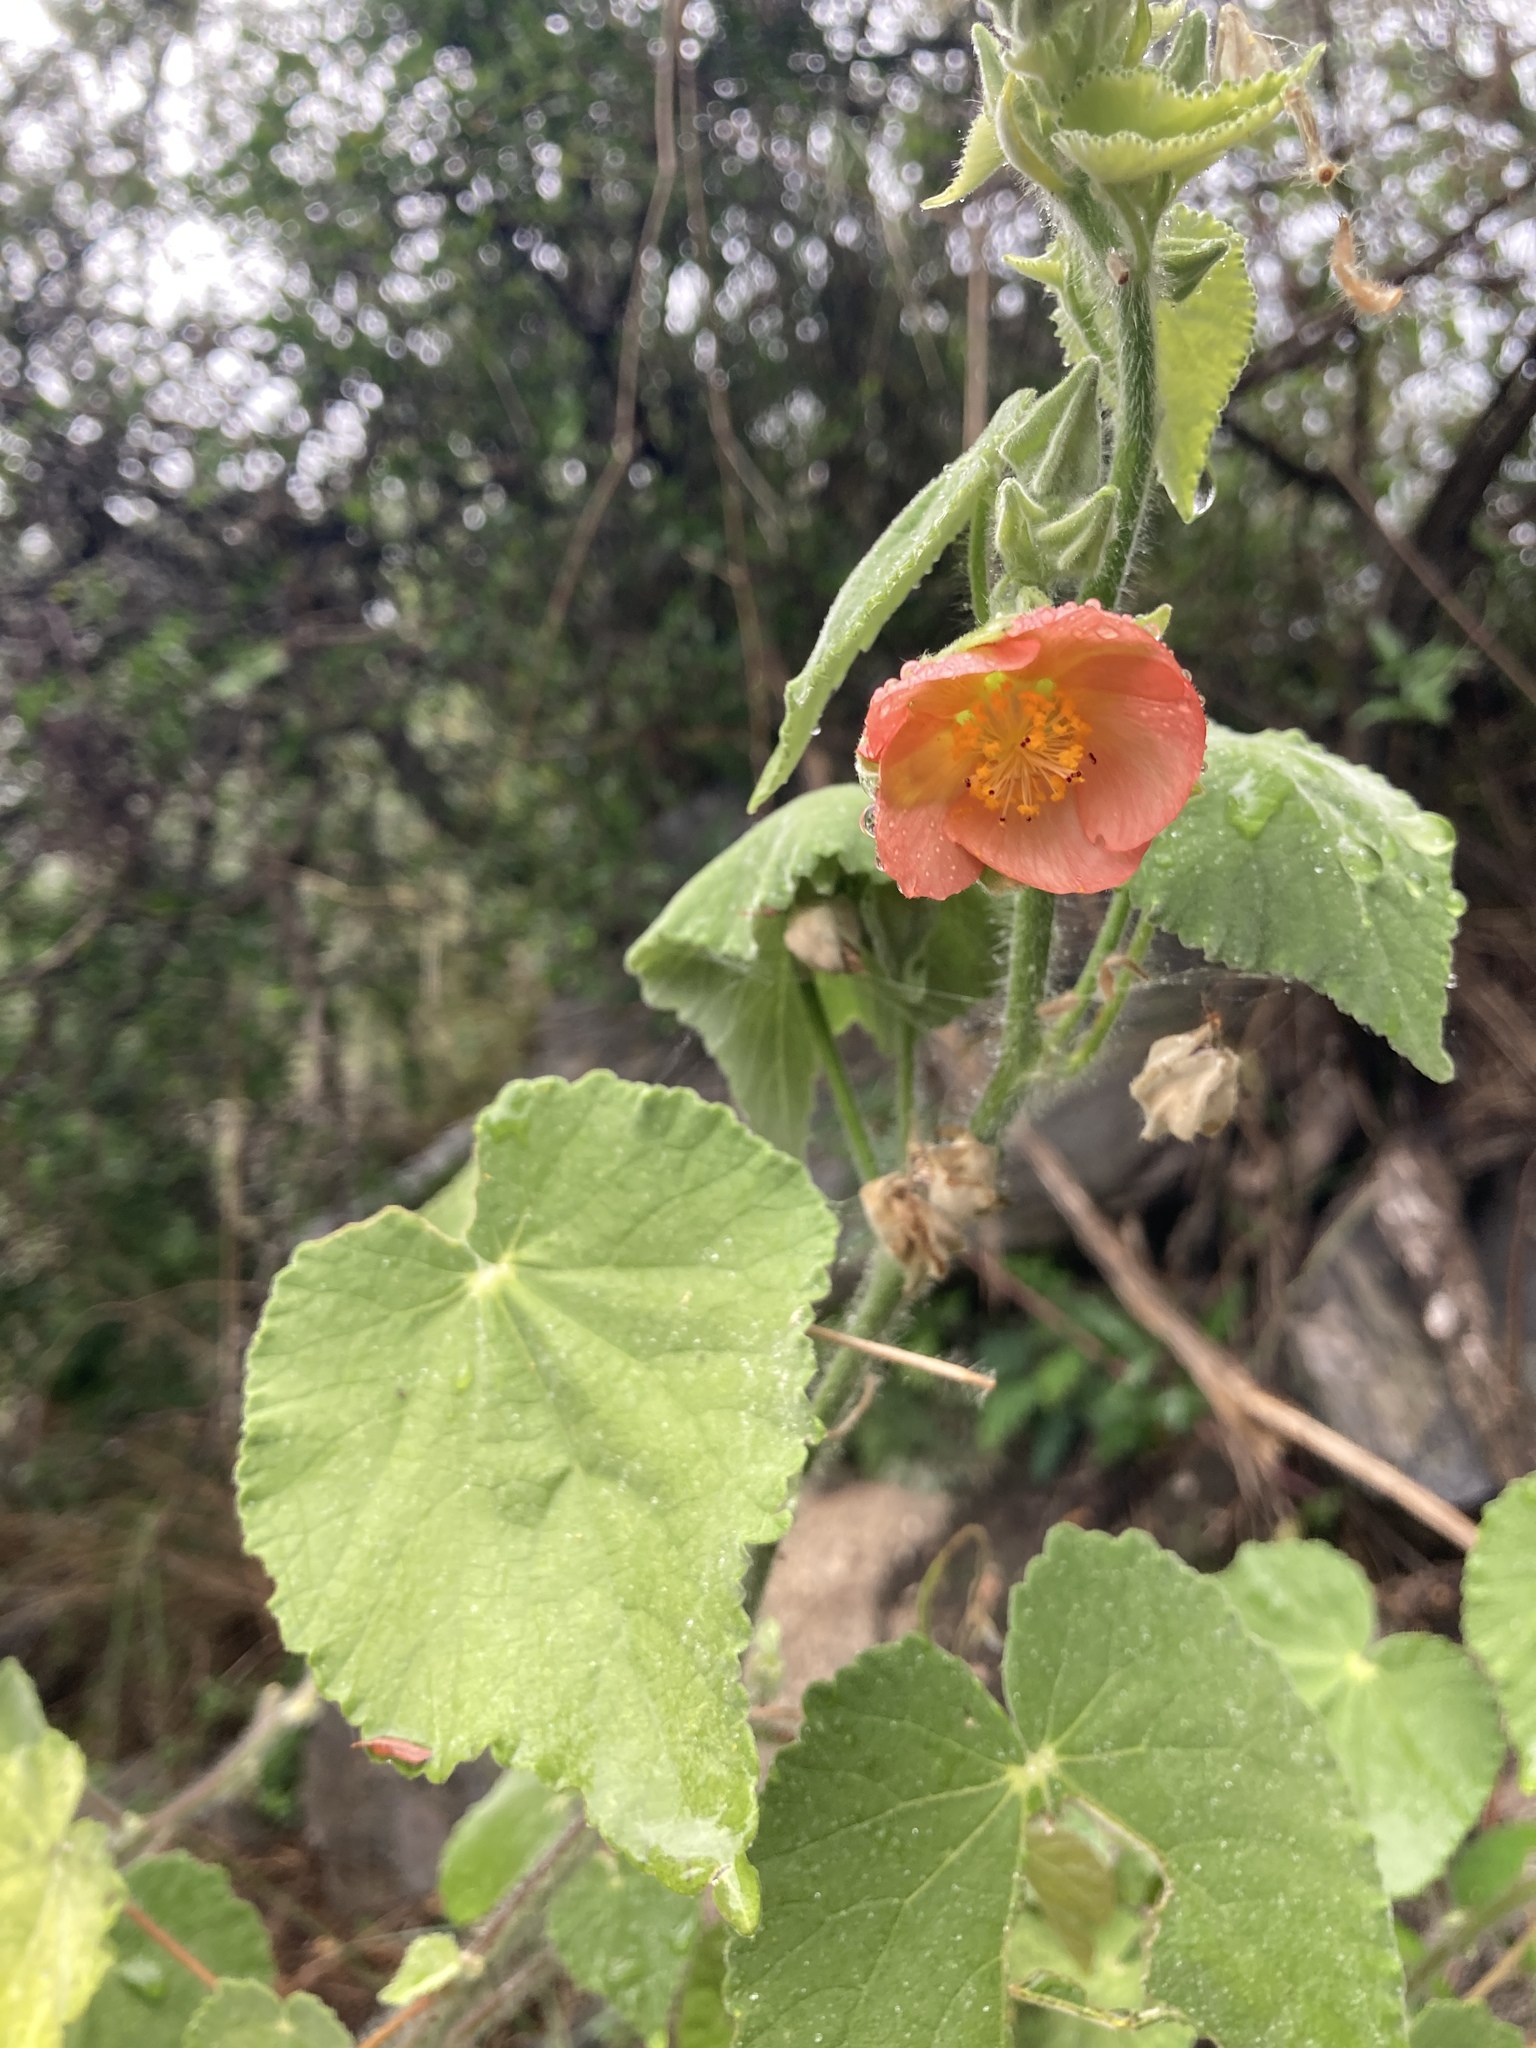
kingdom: Plantae
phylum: Tracheophyta
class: Magnoliopsida
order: Malvales
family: Malvaceae
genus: Callianthe
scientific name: Callianthe pauciflora
